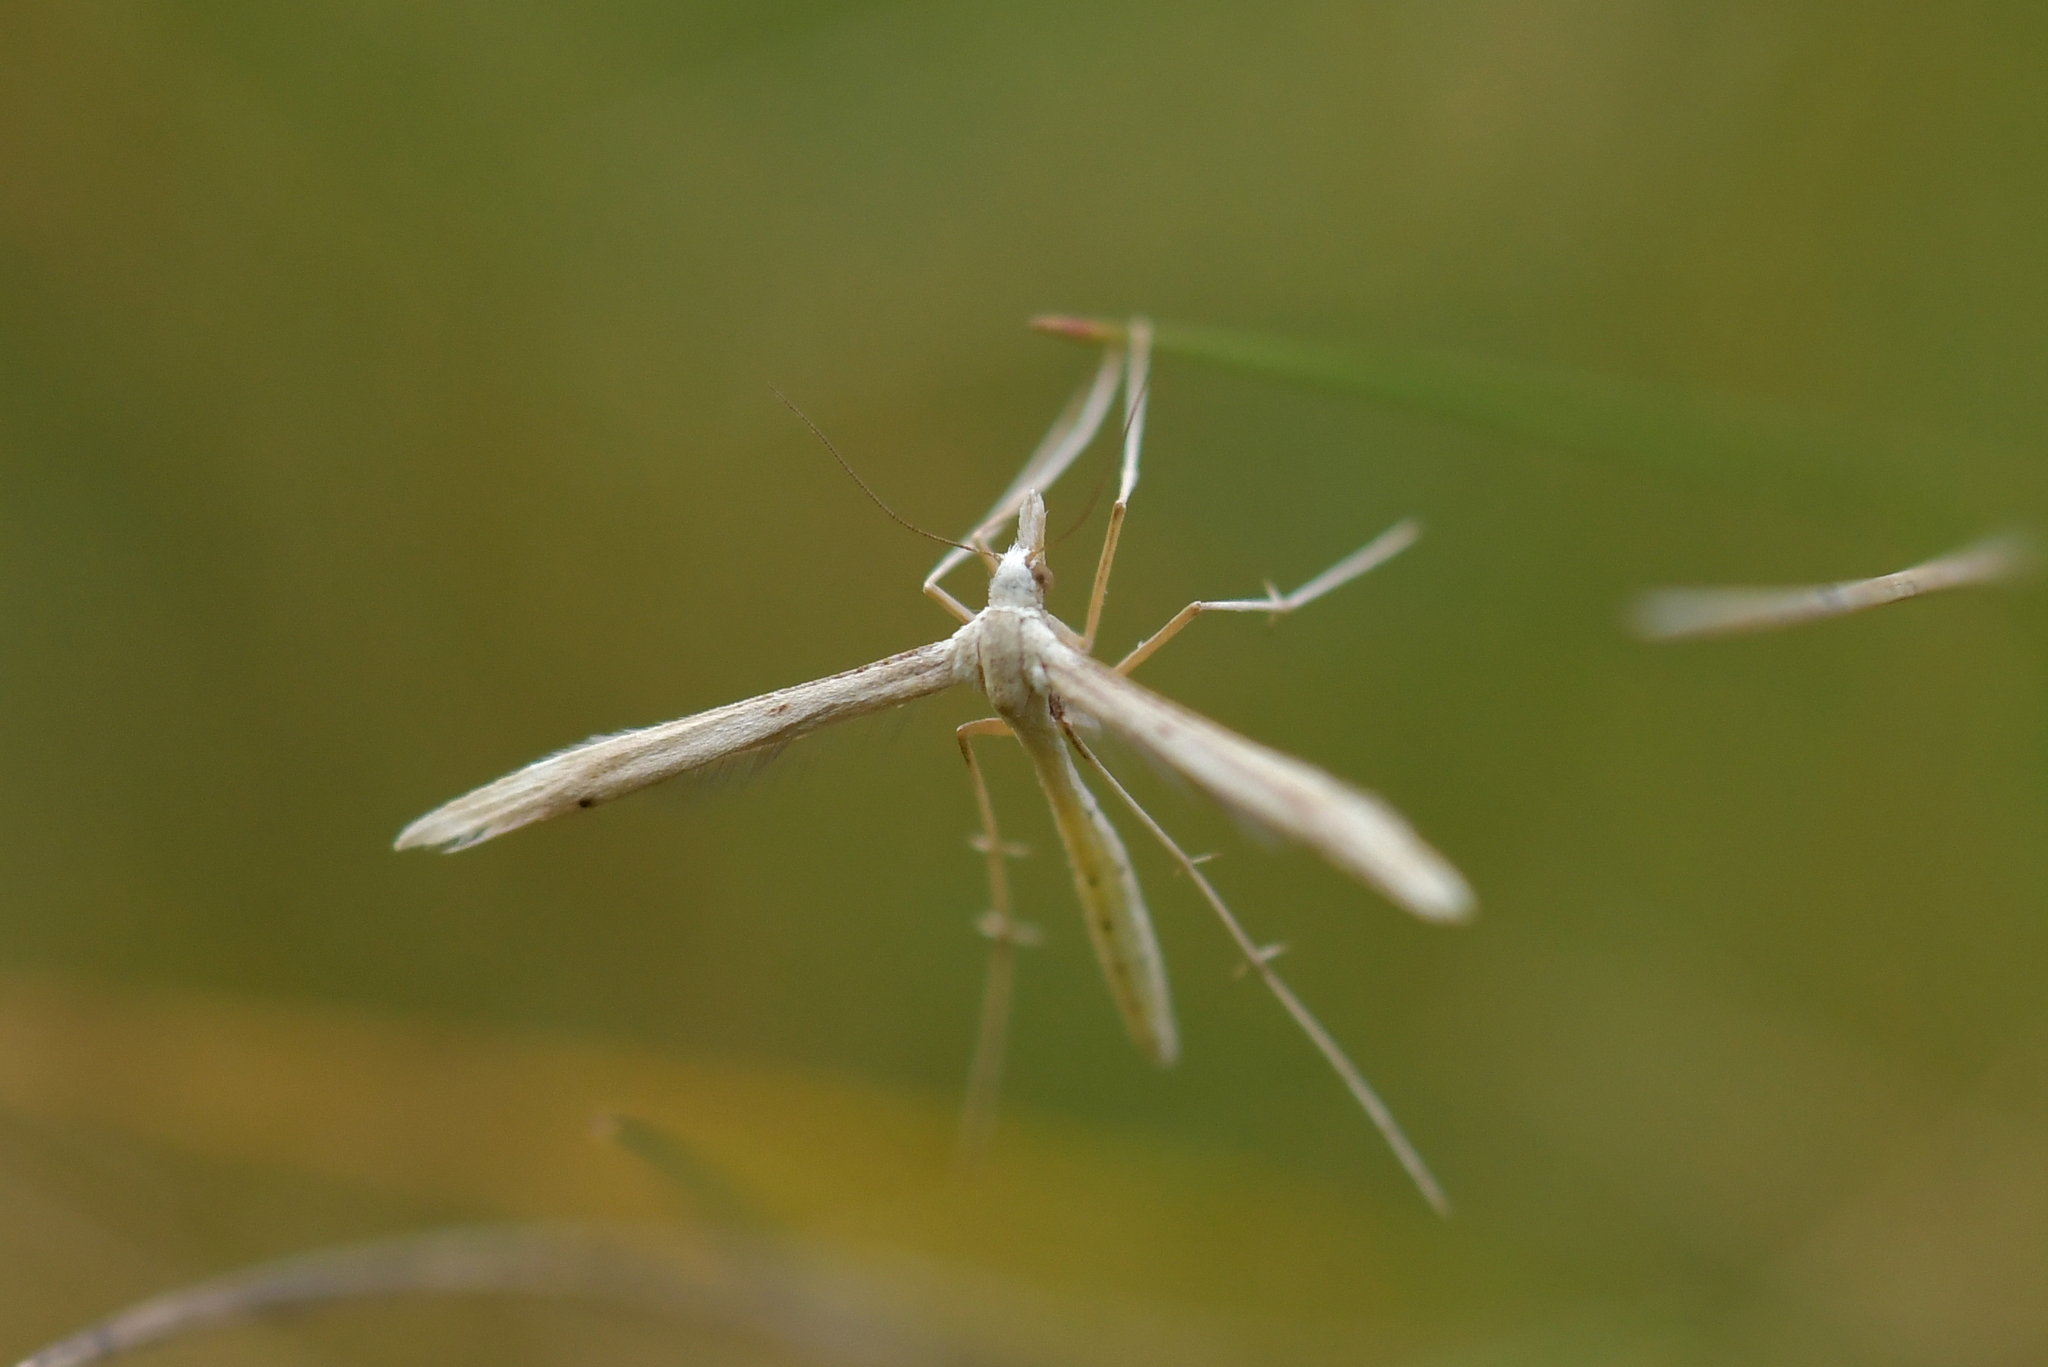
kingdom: Animalia
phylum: Arthropoda
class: Insecta
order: Lepidoptera
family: Pterophoridae
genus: Stenoptilia
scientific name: Stenoptilia orites
